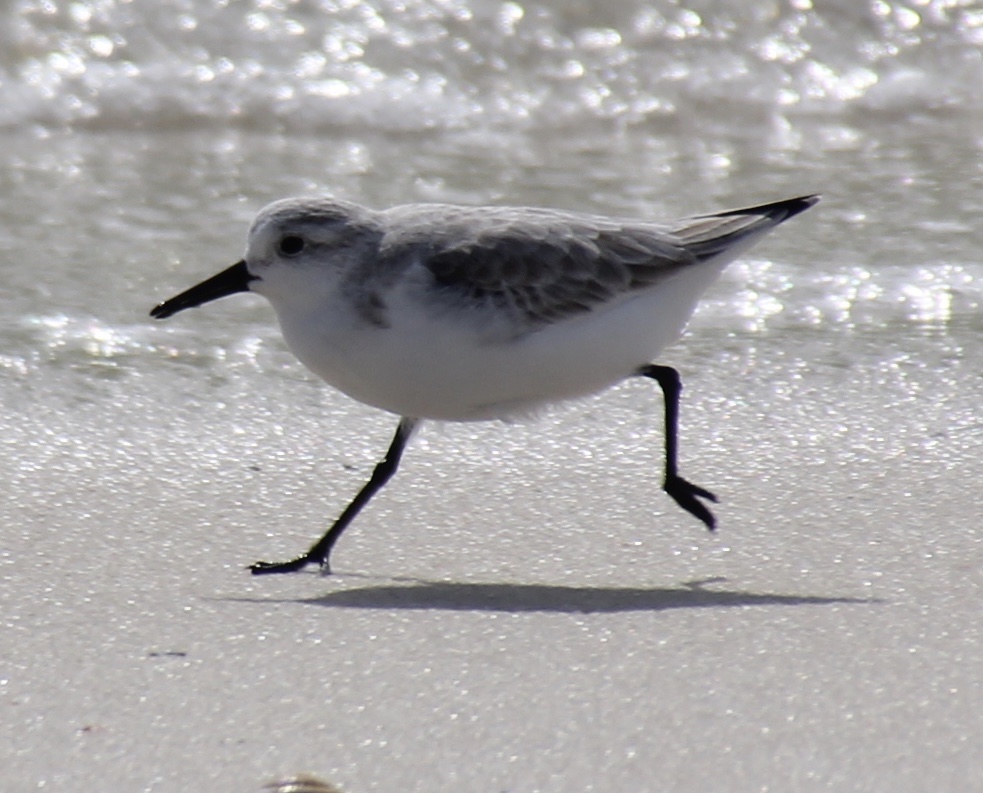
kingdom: Animalia
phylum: Chordata
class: Aves
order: Charadriiformes
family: Scolopacidae
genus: Calidris
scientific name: Calidris alba
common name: Sanderling
